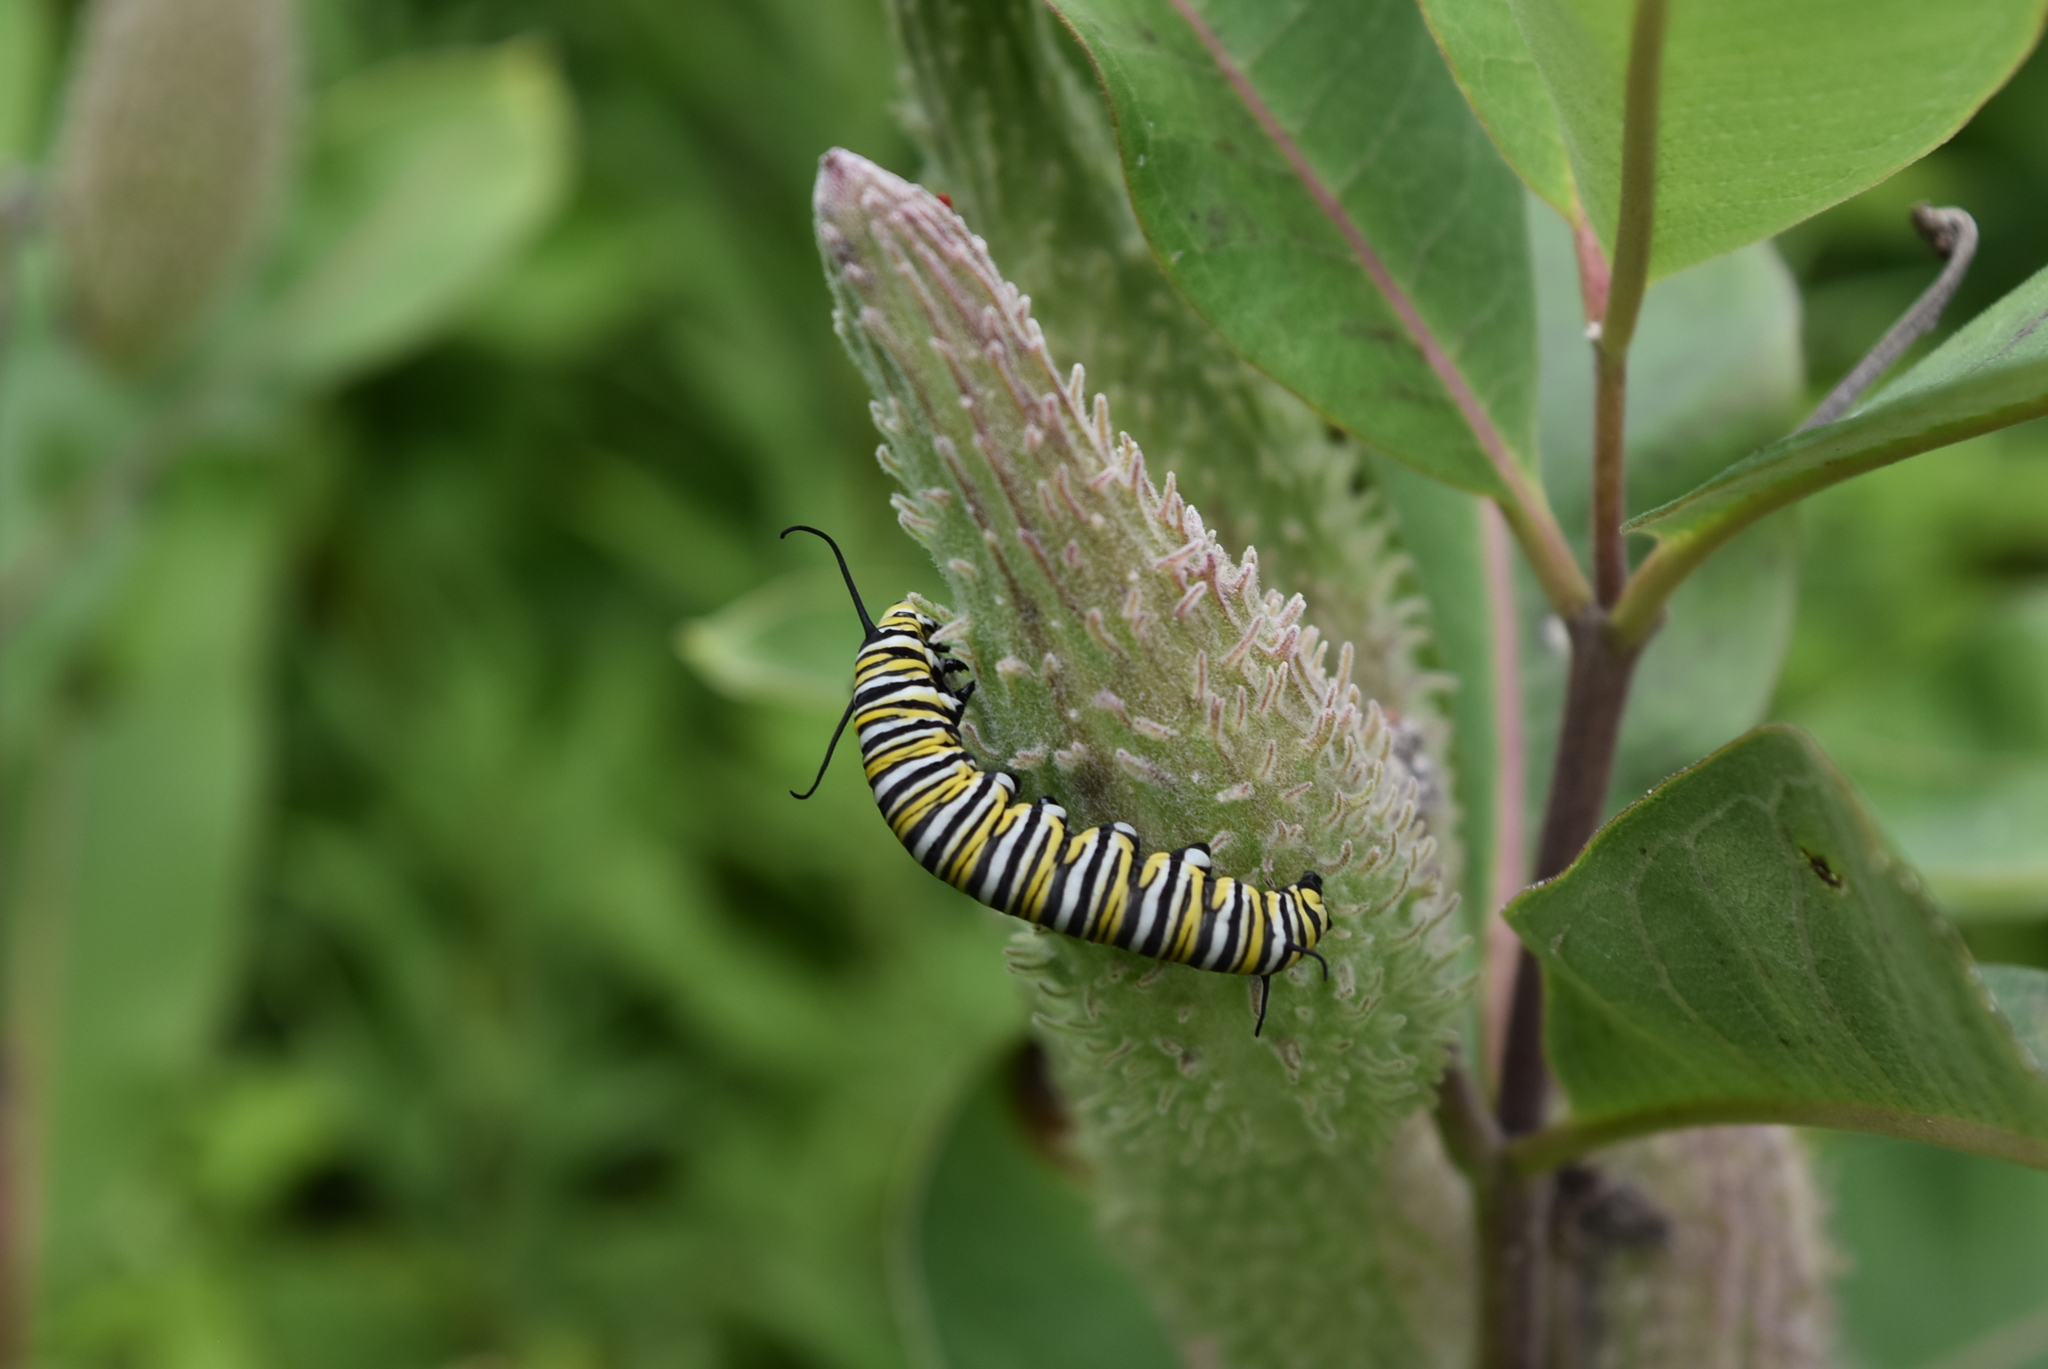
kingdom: Animalia
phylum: Arthropoda
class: Insecta
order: Lepidoptera
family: Nymphalidae
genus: Danaus
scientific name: Danaus plexippus
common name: Monarch
